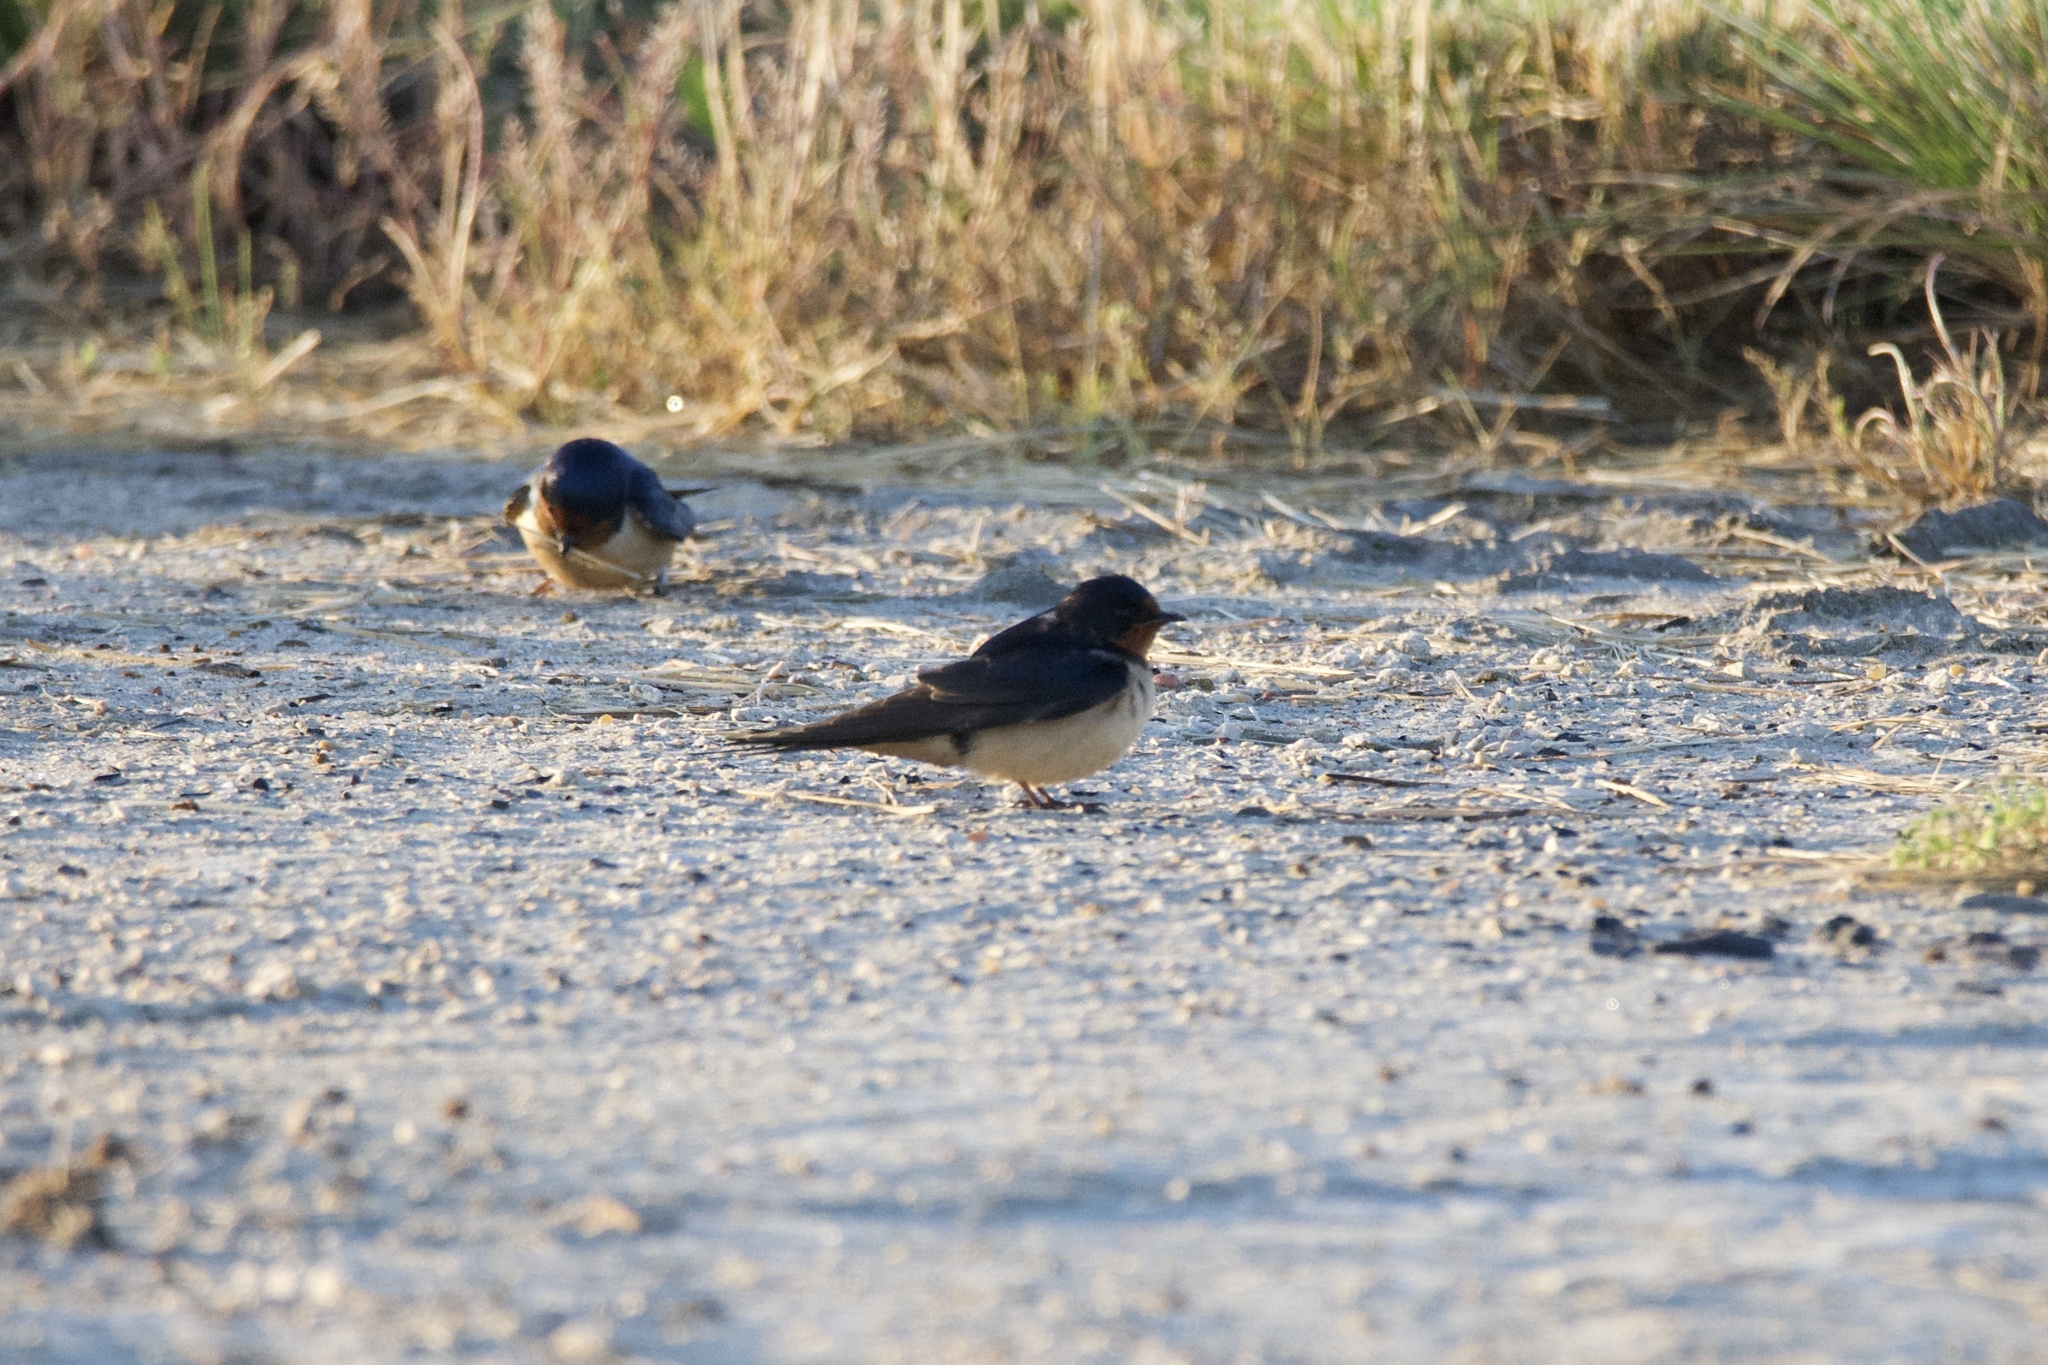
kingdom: Animalia
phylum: Chordata
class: Aves
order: Passeriformes
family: Hirundinidae
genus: Hirundo
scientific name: Hirundo rustica
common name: Barn swallow
